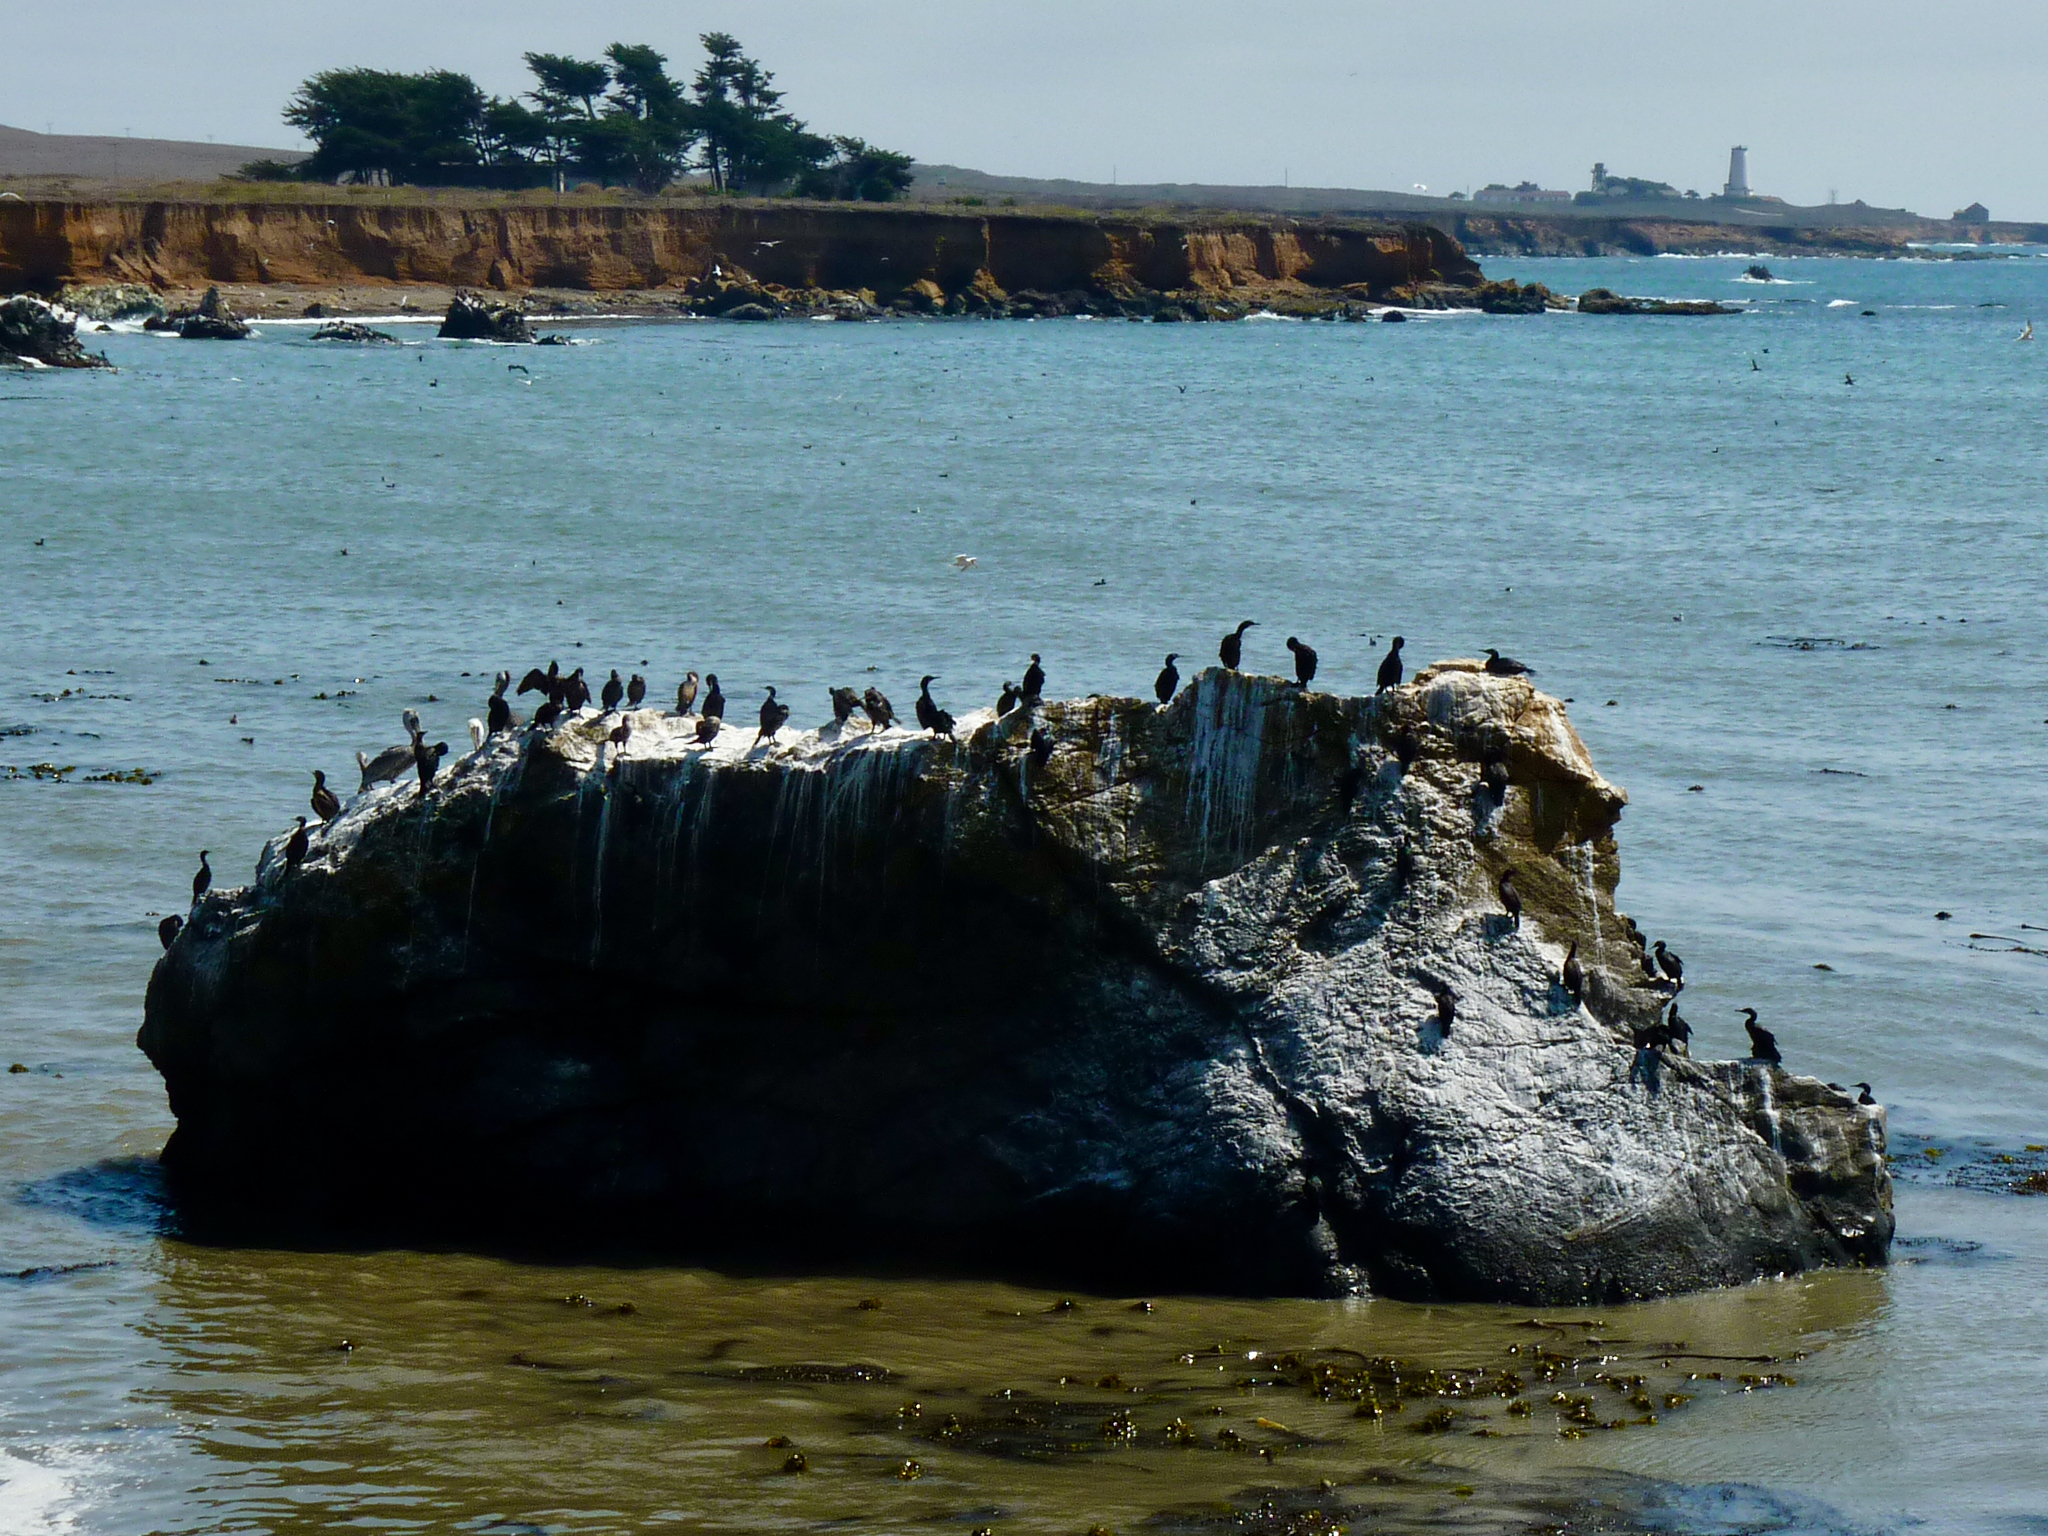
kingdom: Animalia
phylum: Chordata
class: Aves
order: Suliformes
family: Phalacrocoracidae
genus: Urile
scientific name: Urile penicillatus
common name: Brandt's cormorant
